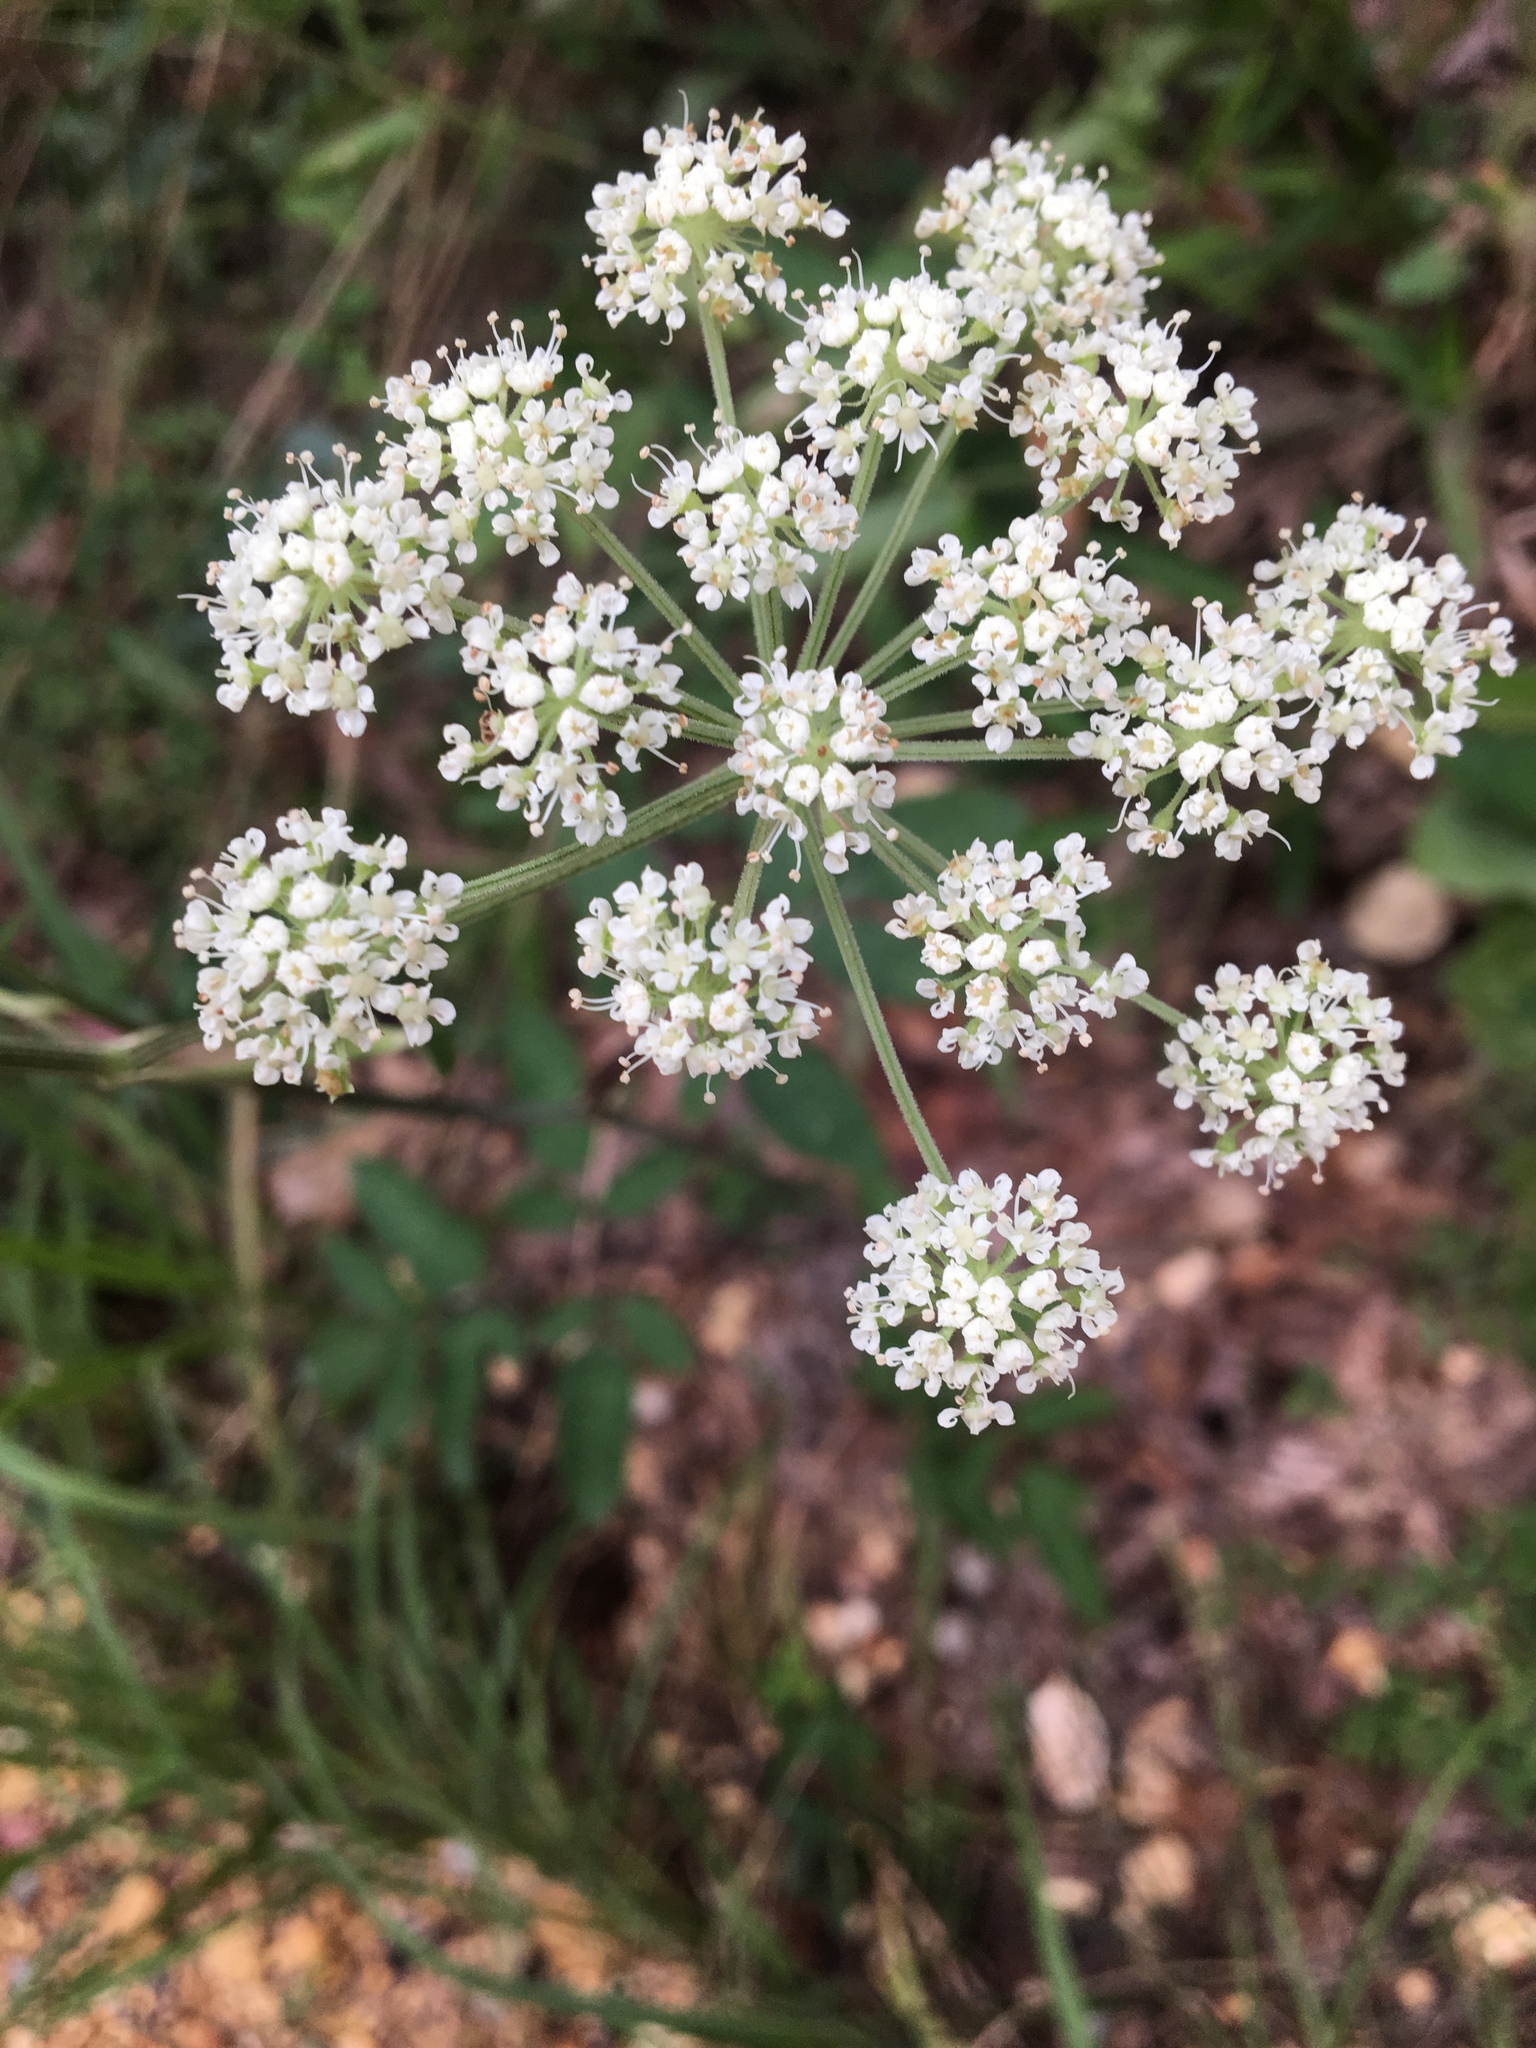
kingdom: Plantae
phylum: Tracheophyta
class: Magnoliopsida
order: Apiales
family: Apiaceae
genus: Angelica
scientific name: Angelica venenosa
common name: Hairy angelica
